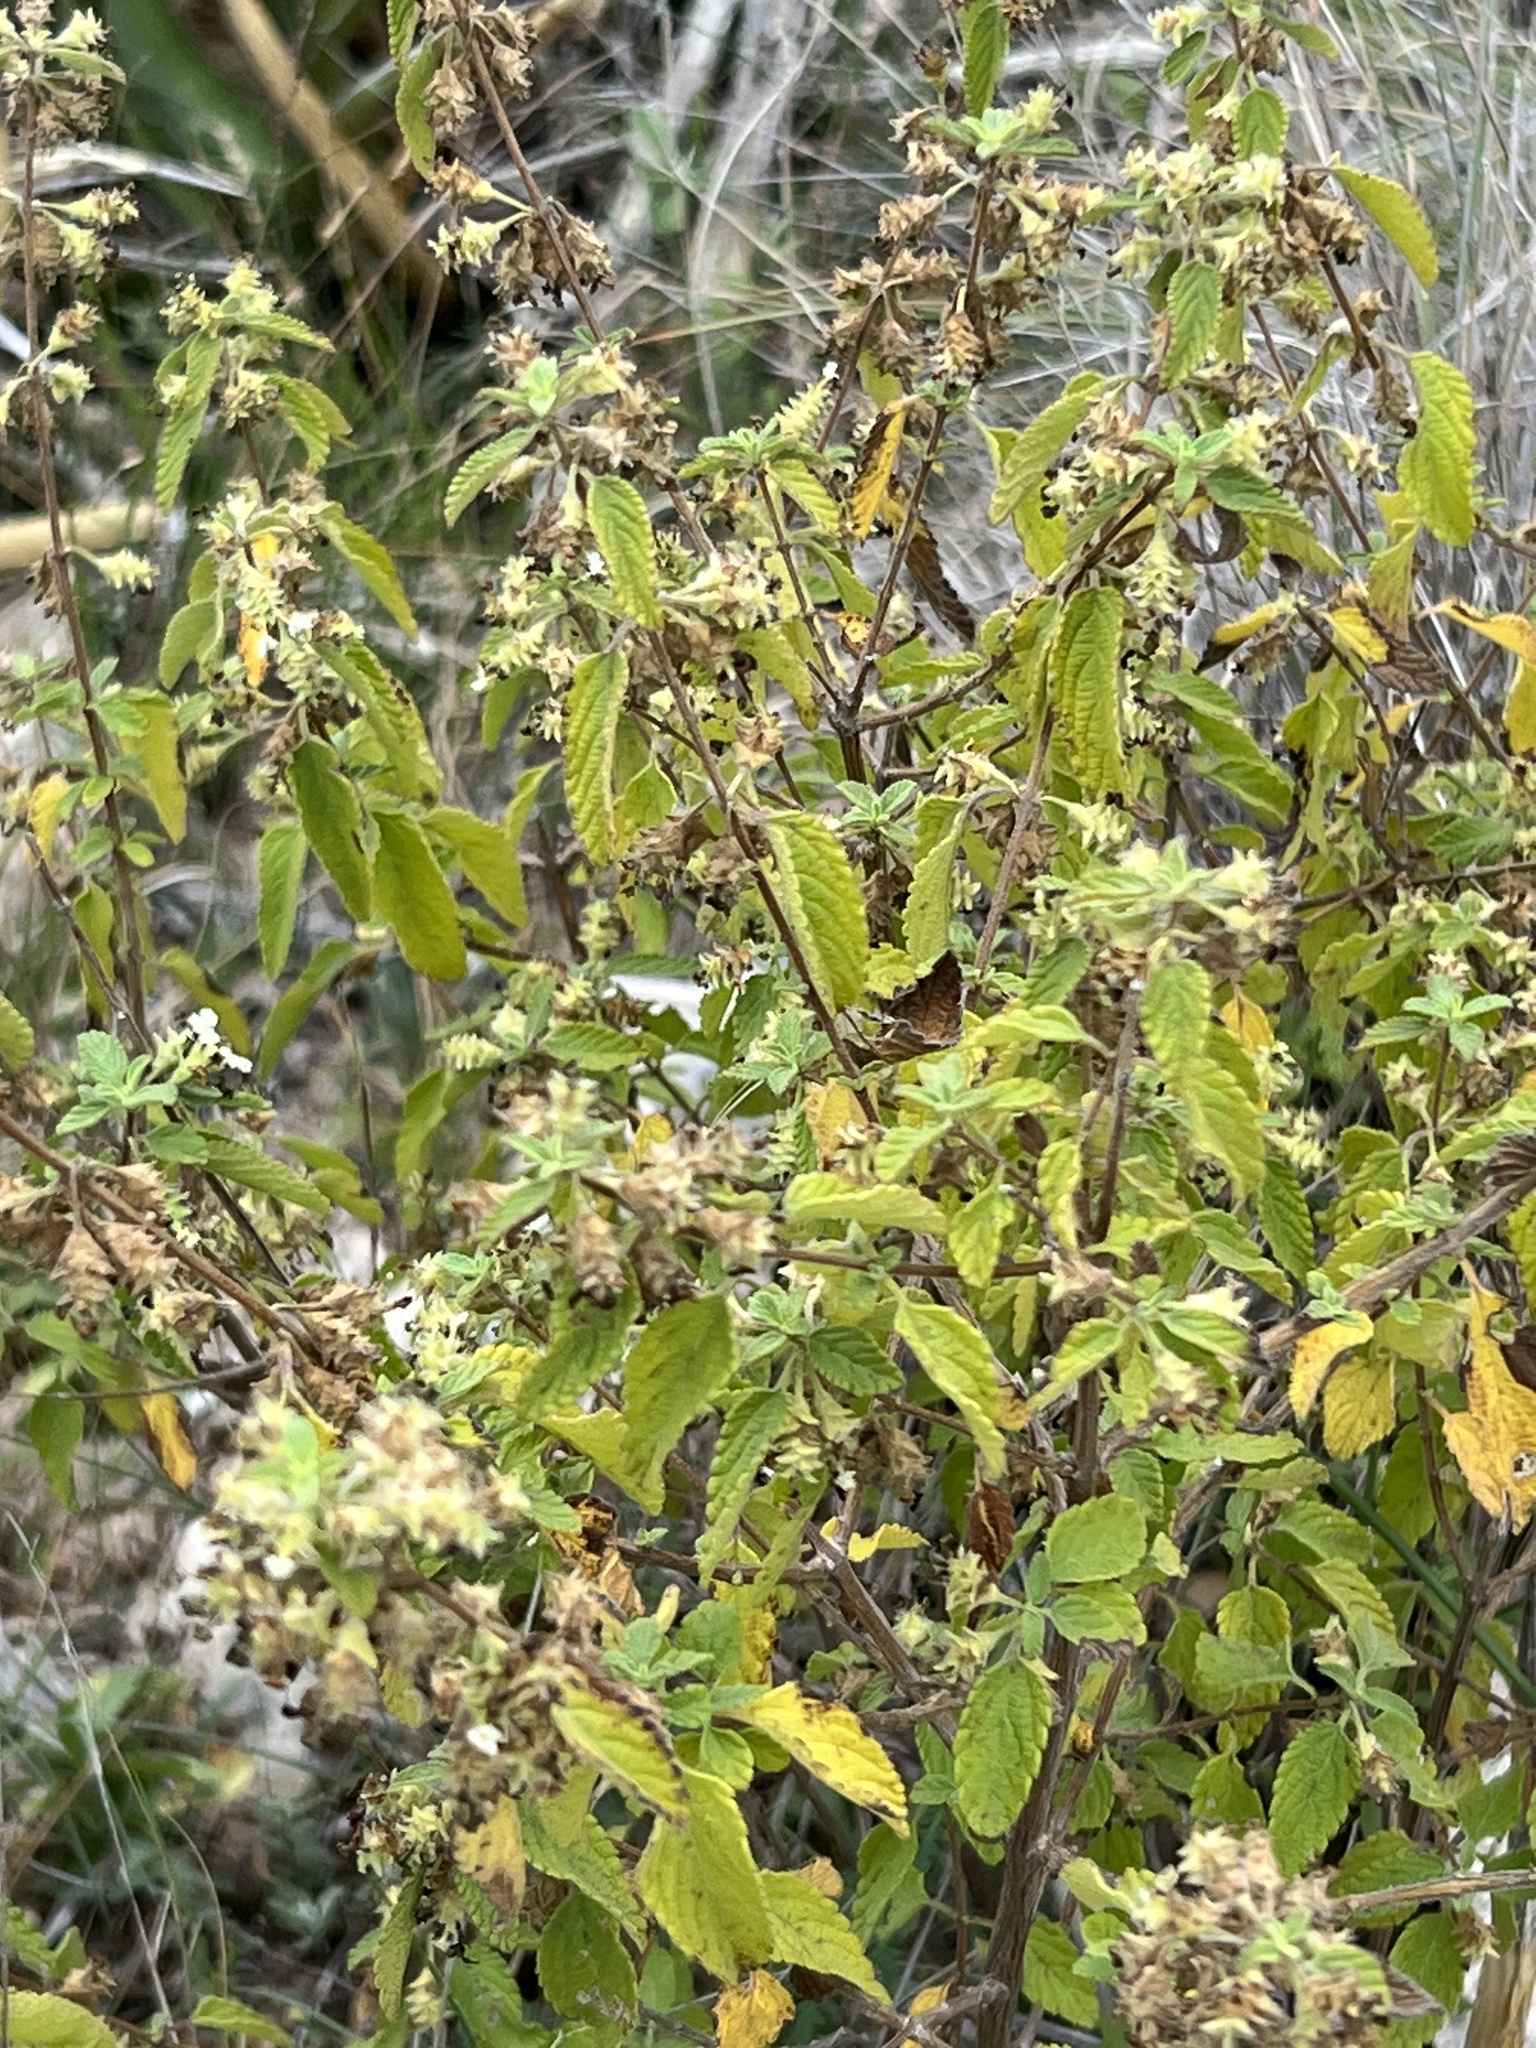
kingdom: Plantae
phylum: Tracheophyta
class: Magnoliopsida
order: Lamiales
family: Verbenaceae
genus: Lippia
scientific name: Lippia origanoides
